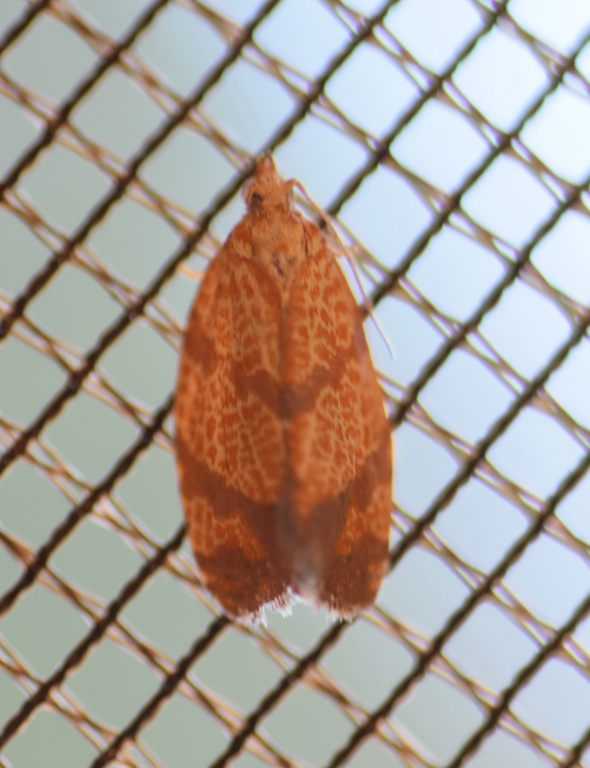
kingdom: Animalia
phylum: Arthropoda
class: Insecta
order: Lepidoptera
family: Tortricidae
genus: Argyrotaenia
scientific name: Argyrotaenia quadrifasciana
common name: Four-lined leafroller moth
